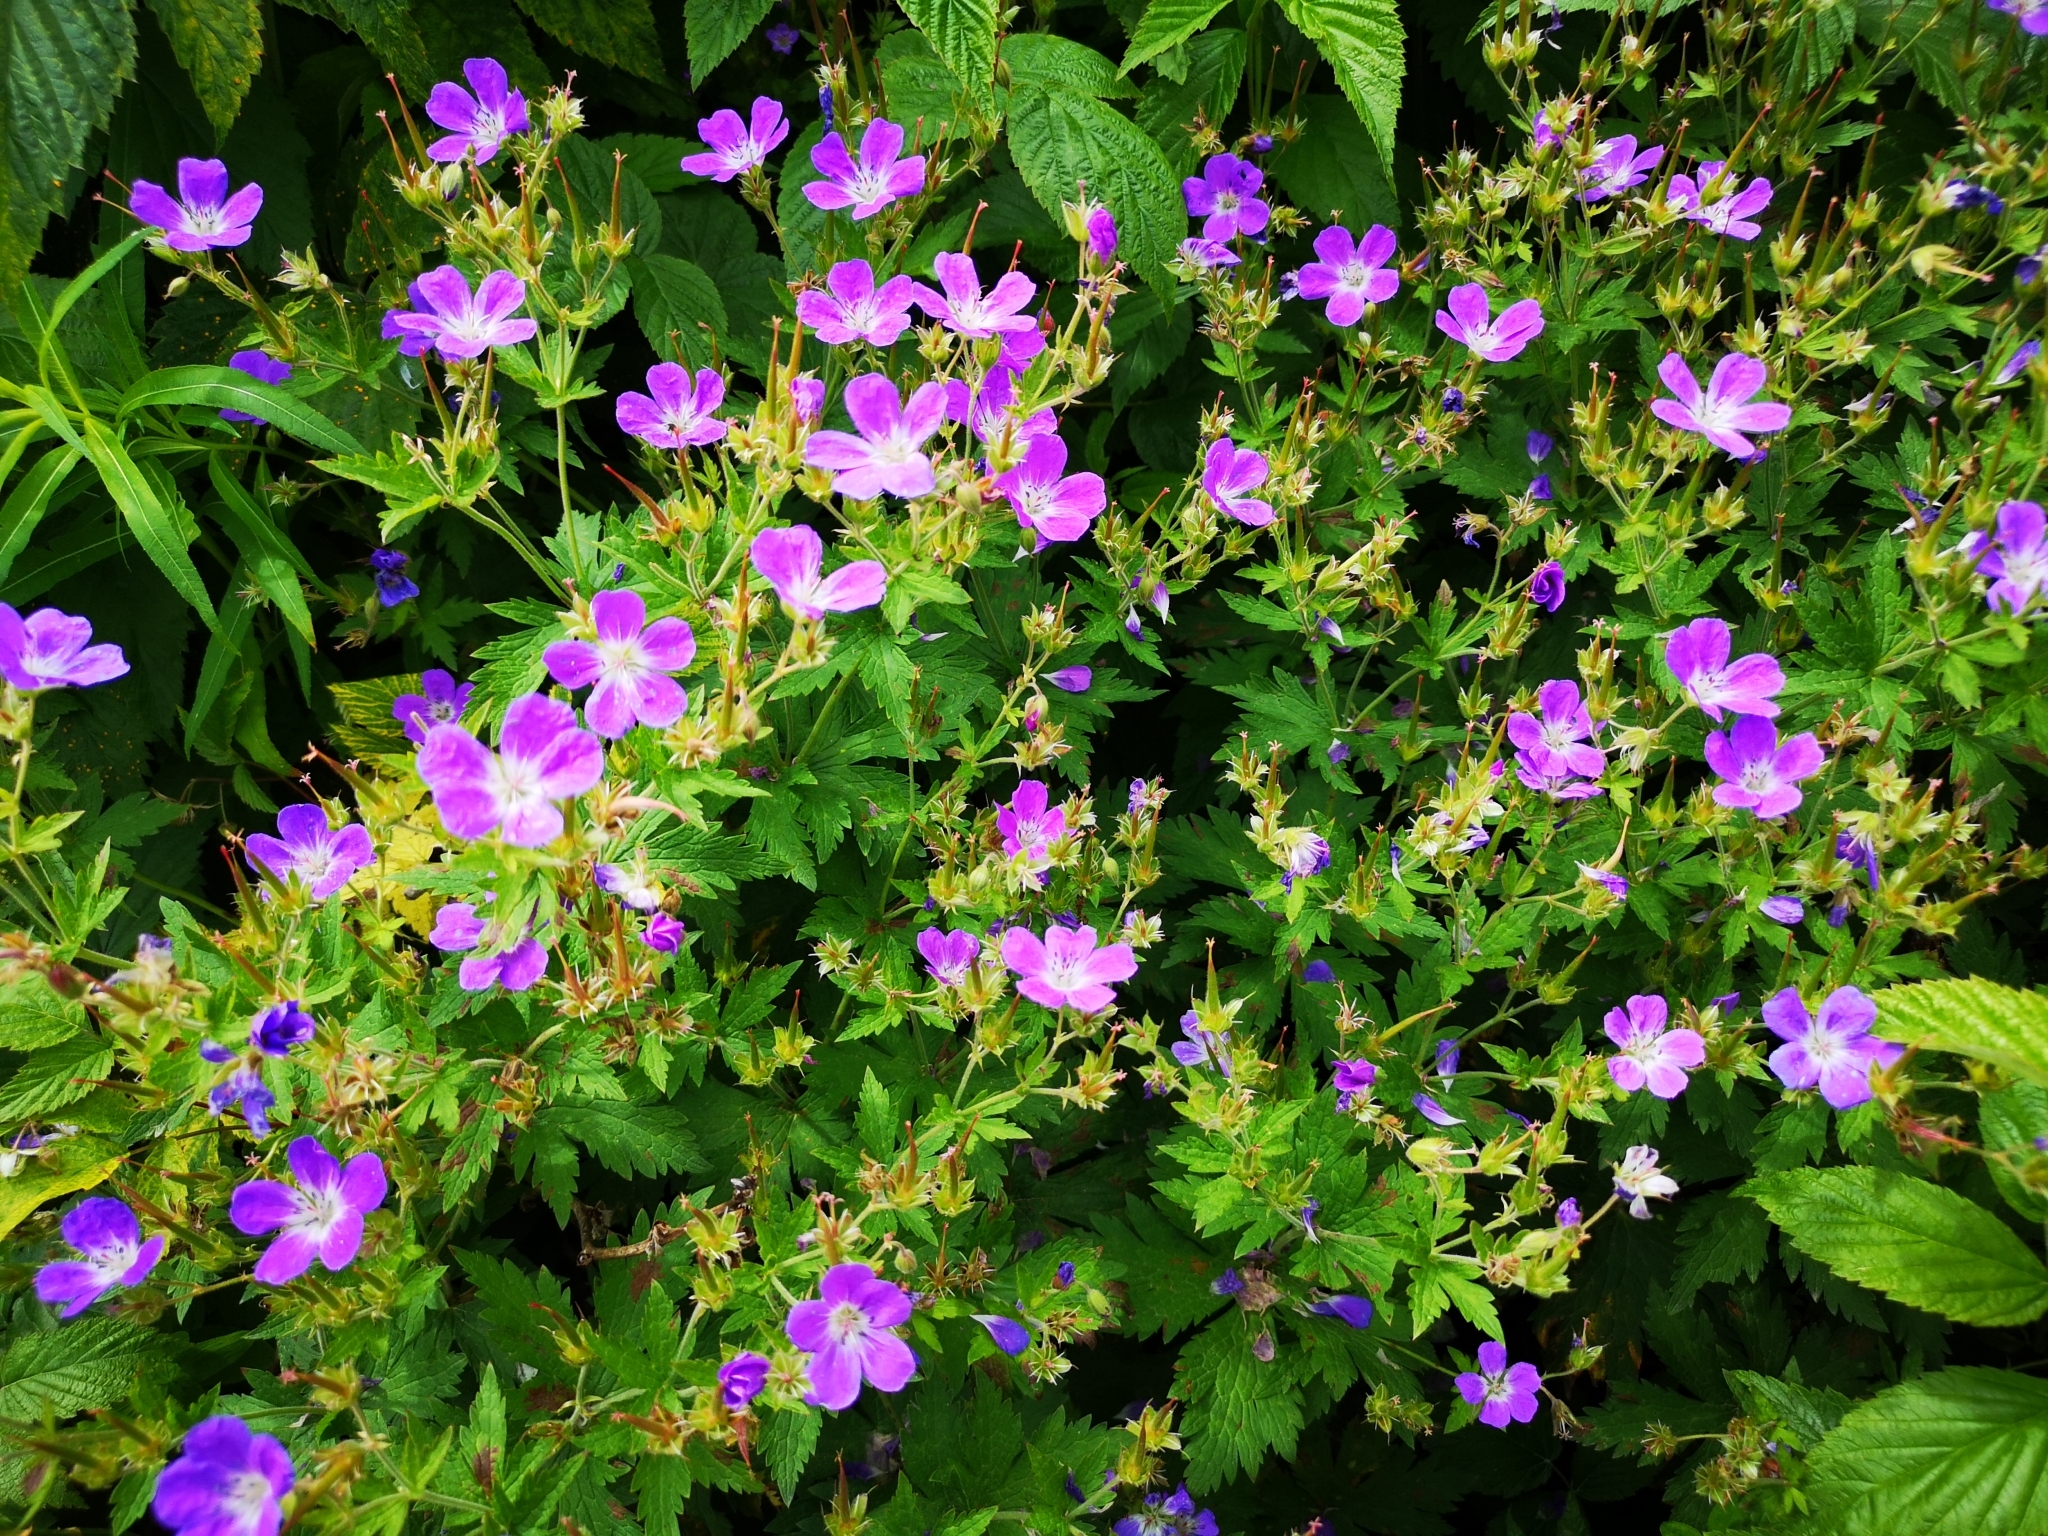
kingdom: Plantae
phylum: Tracheophyta
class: Magnoliopsida
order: Geraniales
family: Geraniaceae
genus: Geranium
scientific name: Geranium sylvaticum
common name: Wood crane's-bill
